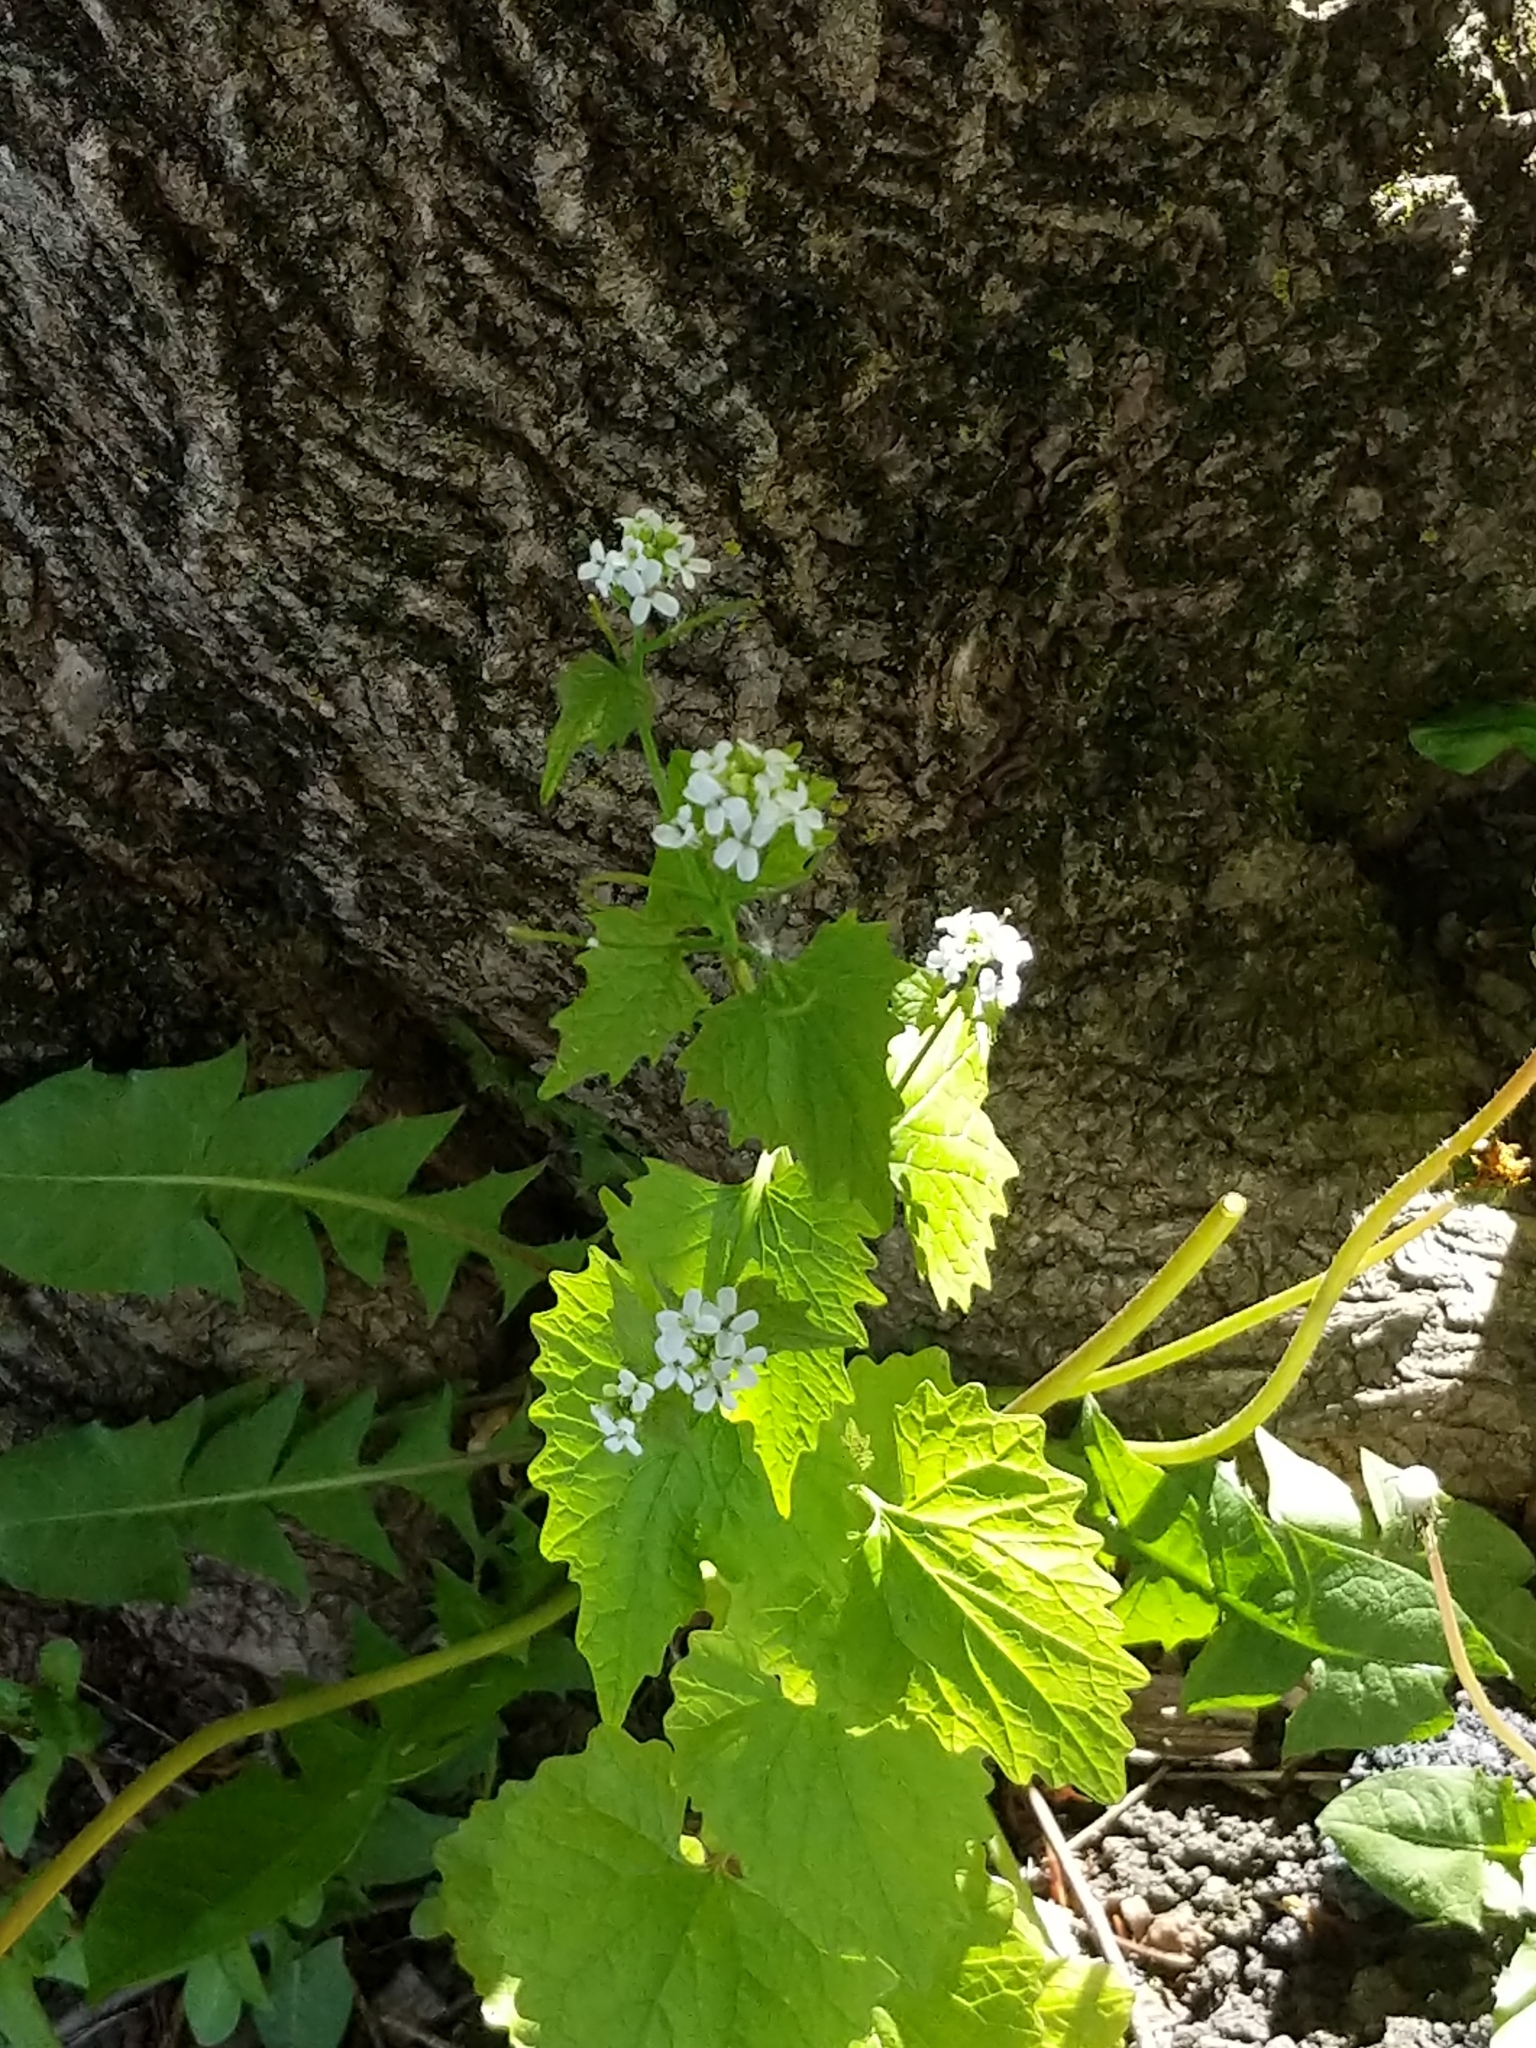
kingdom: Plantae
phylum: Tracheophyta
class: Magnoliopsida
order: Brassicales
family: Brassicaceae
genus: Alliaria
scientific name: Alliaria petiolata
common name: Garlic mustard
